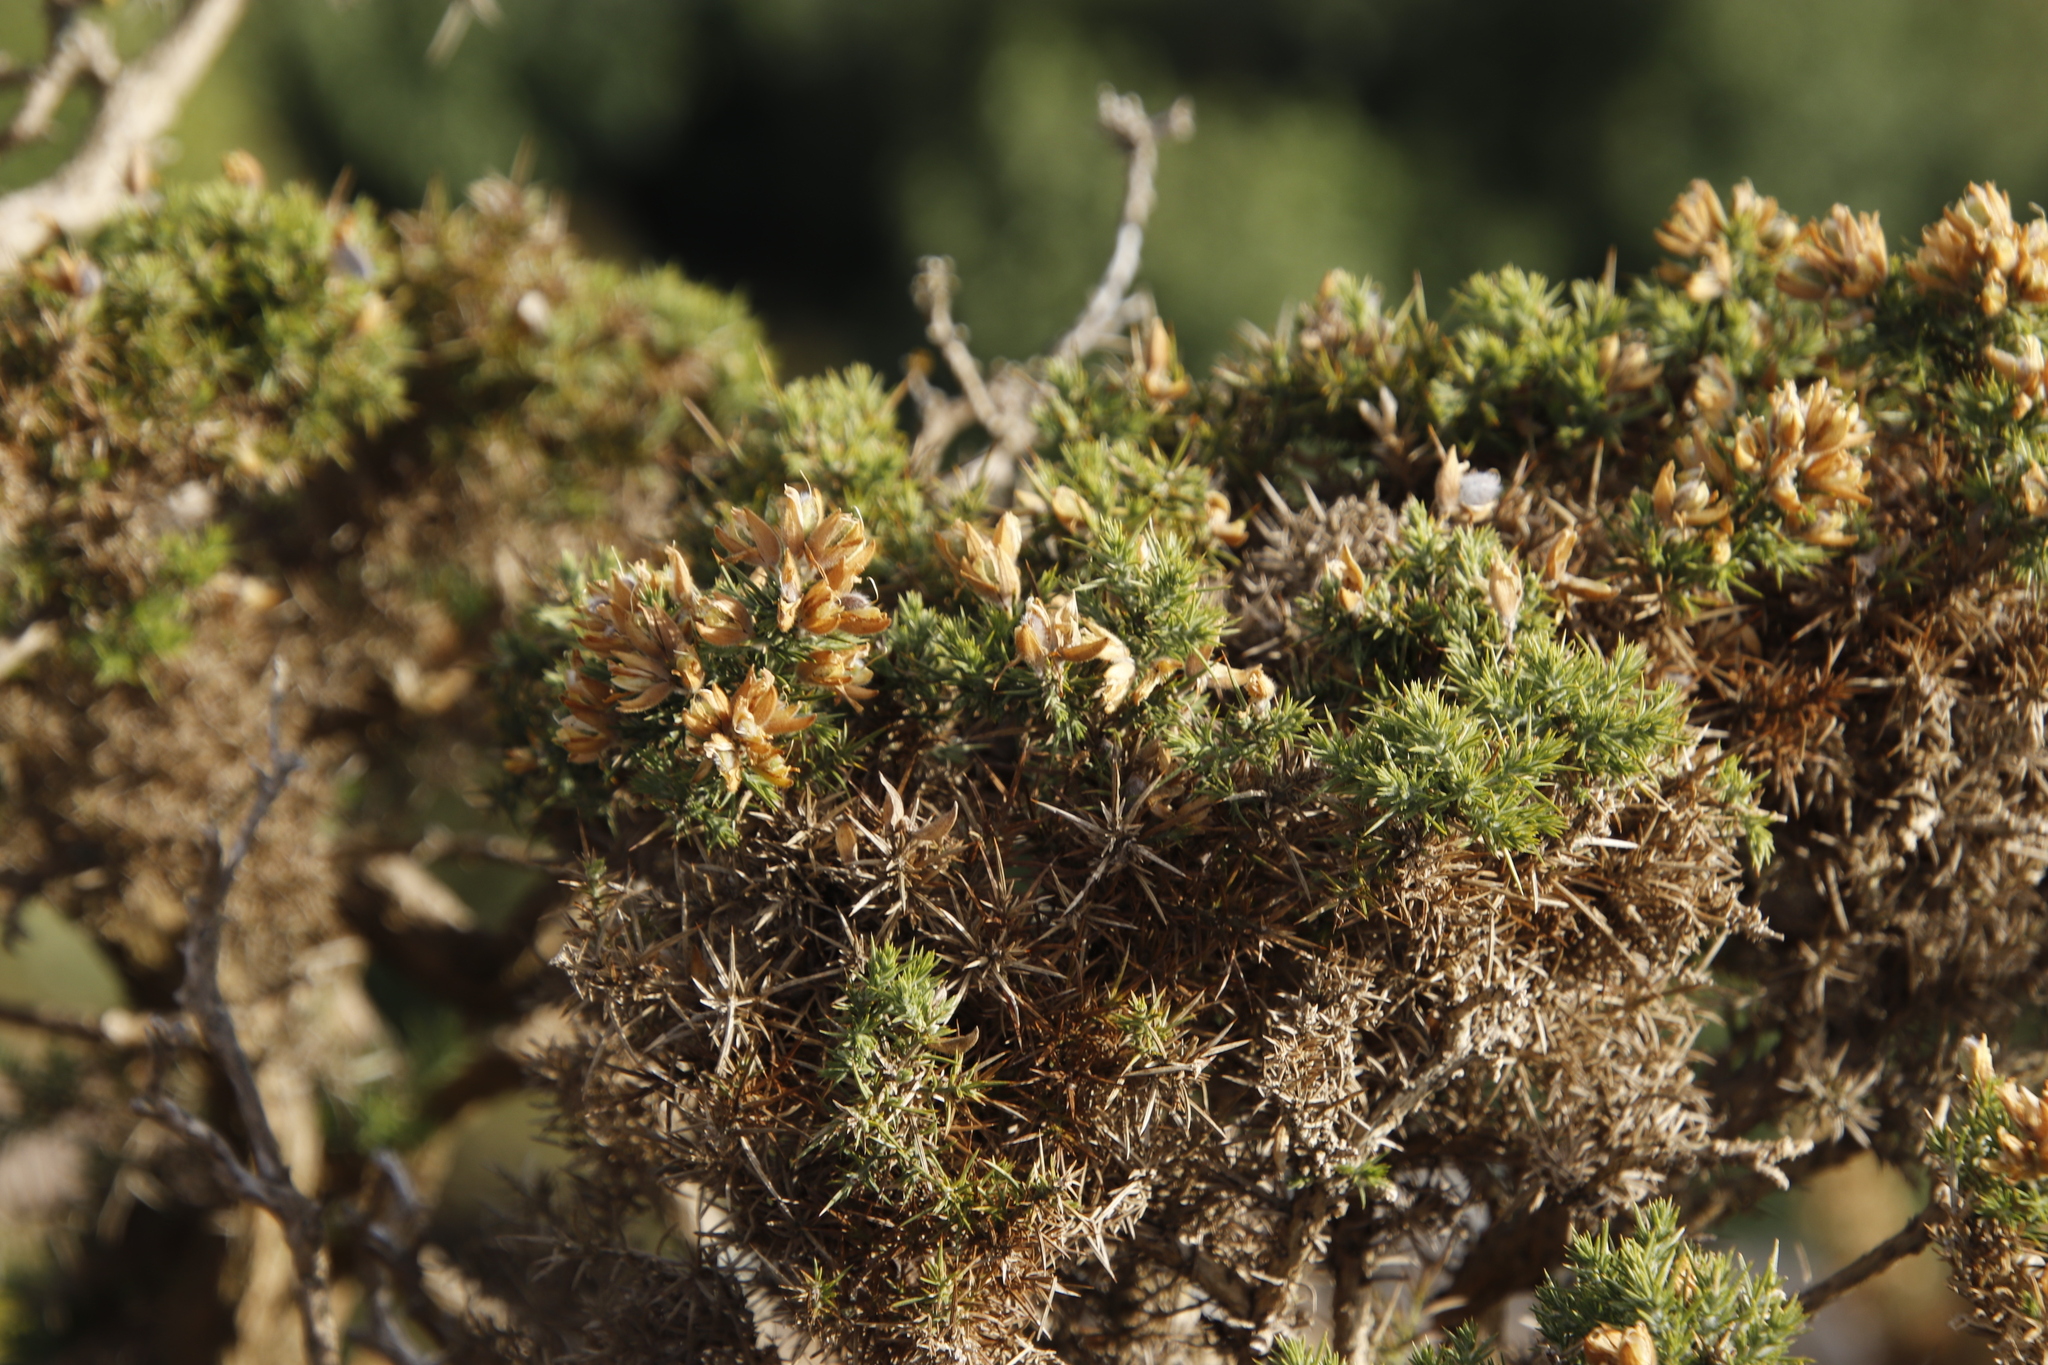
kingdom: Plantae
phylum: Tracheophyta
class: Magnoliopsida
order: Fabales
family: Fabaceae
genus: Ulex
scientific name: Ulex europaeus
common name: Common gorse
